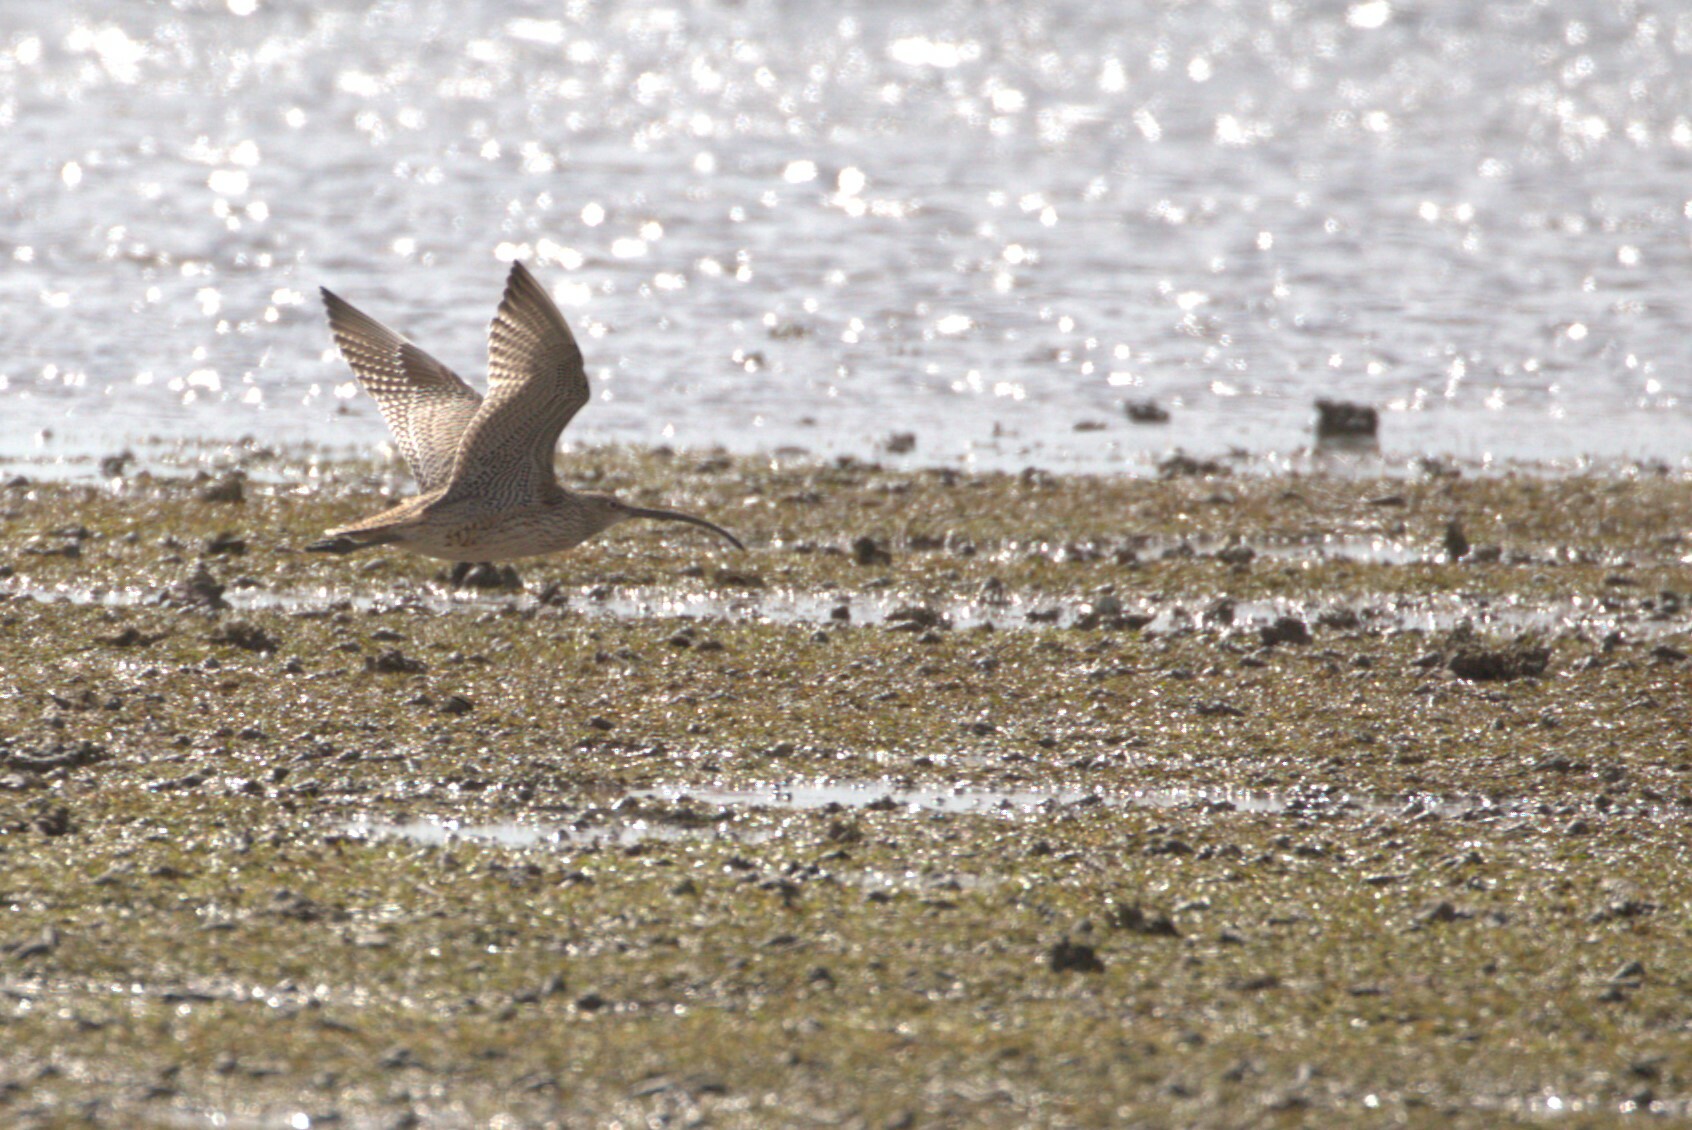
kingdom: Animalia
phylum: Chordata
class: Aves
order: Charadriiformes
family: Scolopacidae
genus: Numenius
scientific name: Numenius madagascariensis
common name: Far eastern curlew
